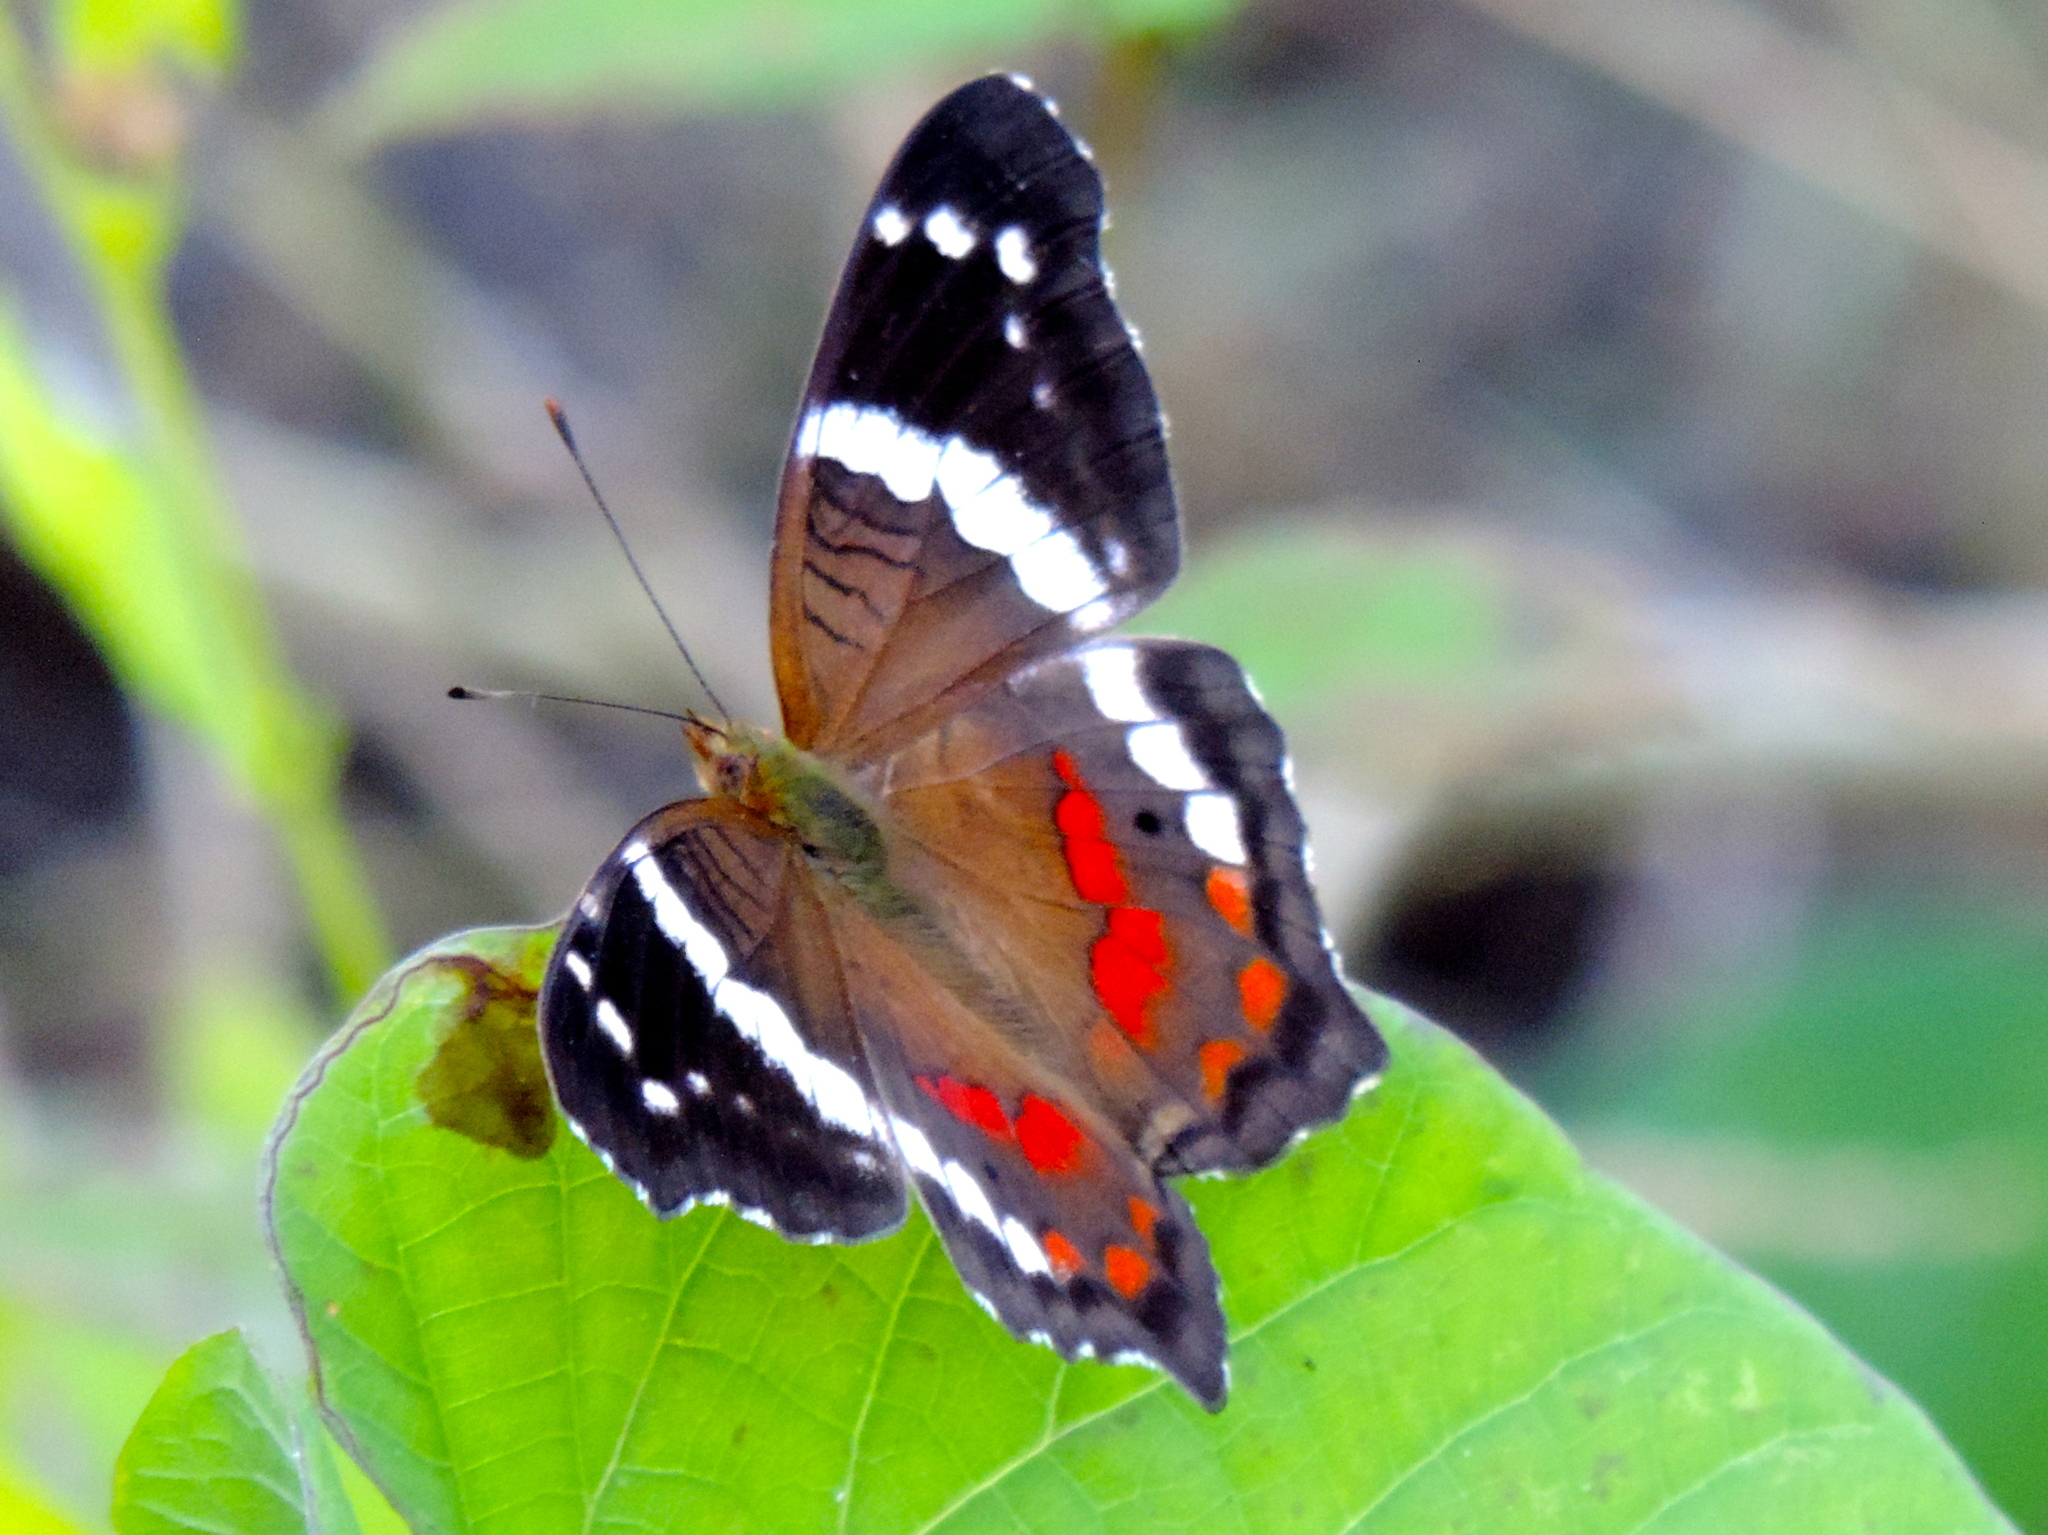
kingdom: Animalia
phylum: Arthropoda
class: Insecta
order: Lepidoptera
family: Nymphalidae
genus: Anartia
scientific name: Anartia fatima
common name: Banded peacock
